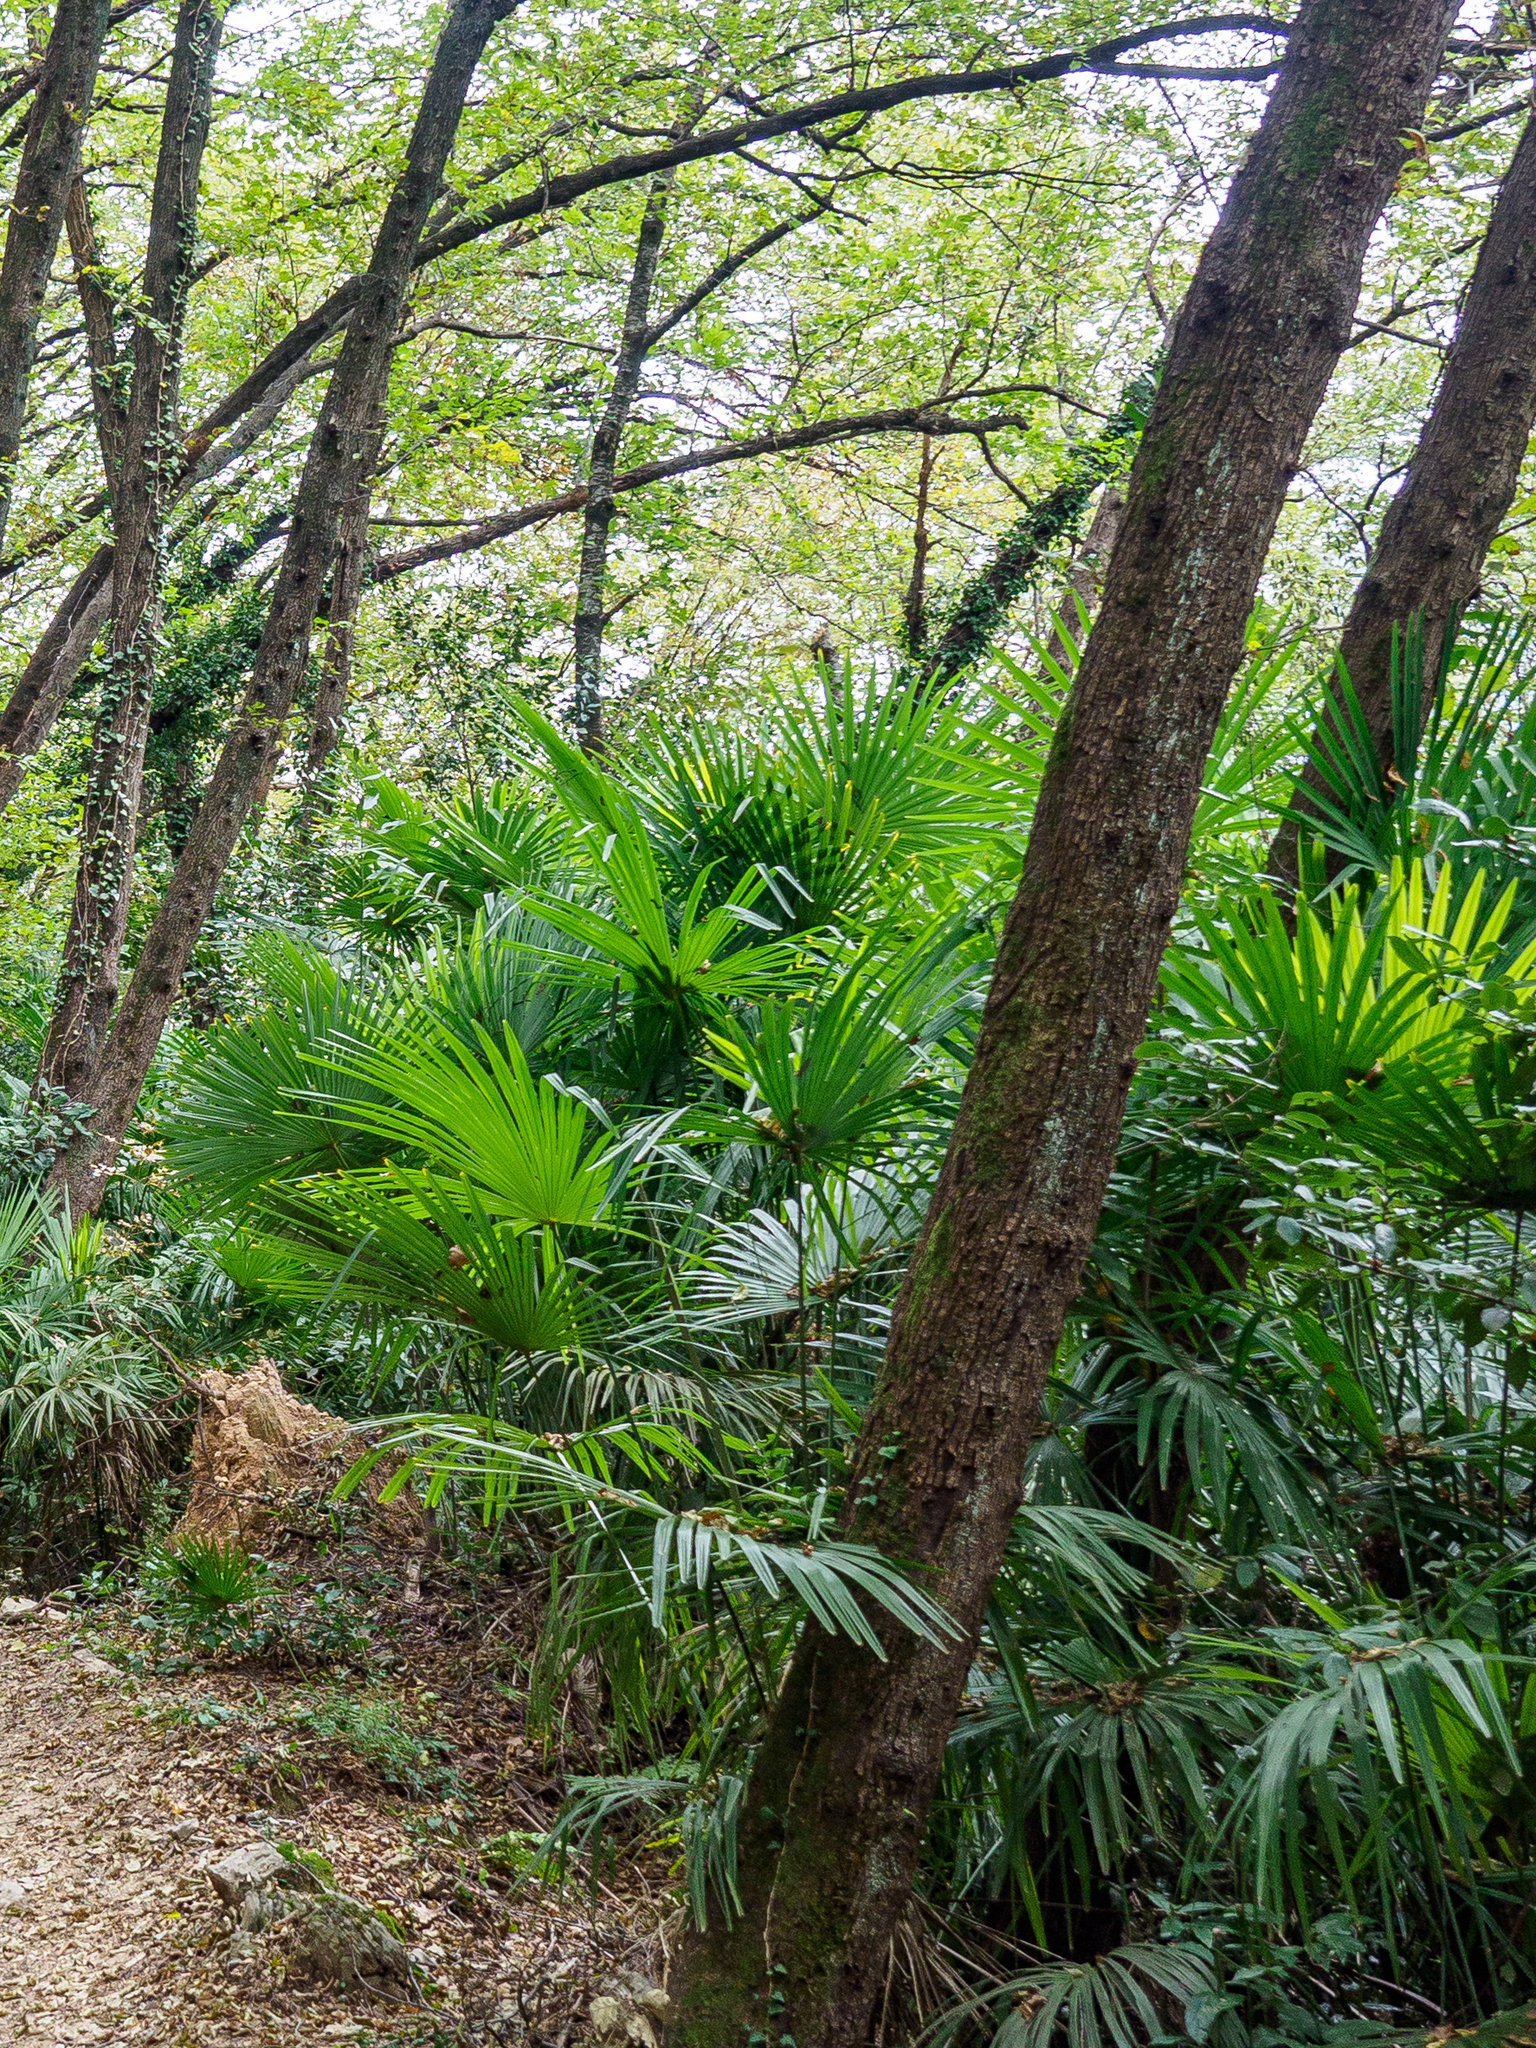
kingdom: Plantae
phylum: Tracheophyta
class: Liliopsida
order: Arecales
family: Arecaceae
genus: Trachycarpus
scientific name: Trachycarpus fortunei
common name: Chusan palm
